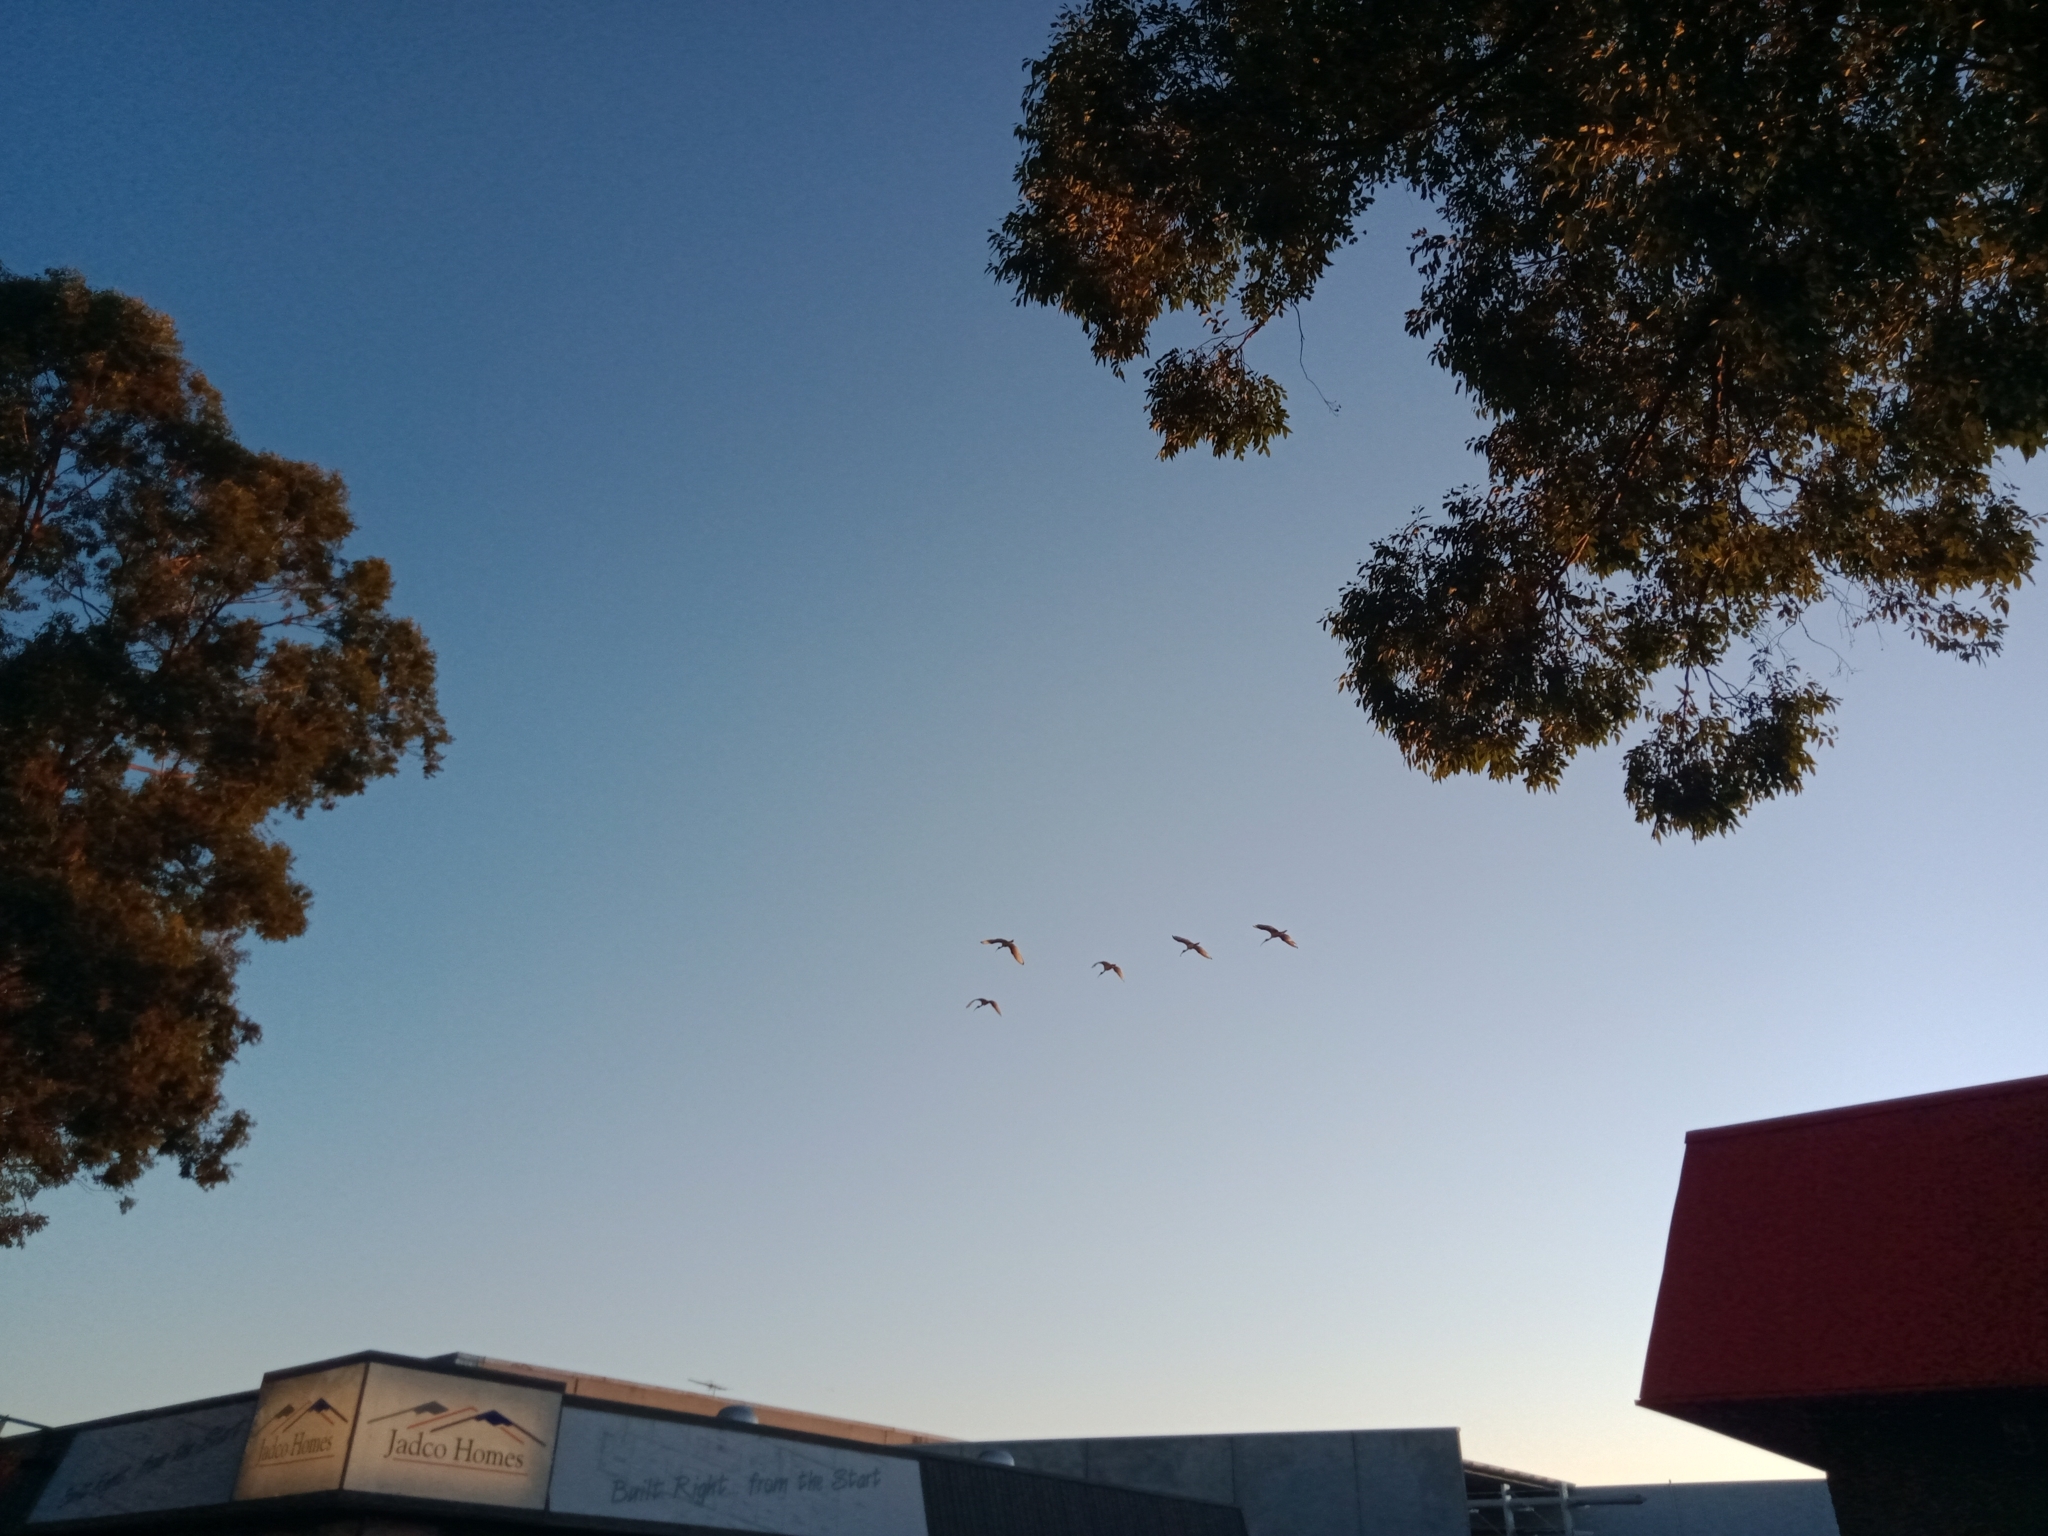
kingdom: Animalia
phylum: Chordata
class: Aves
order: Pelecaniformes
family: Threskiornithidae
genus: Threskiornis
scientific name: Threskiornis molucca
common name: Australian white ibis
